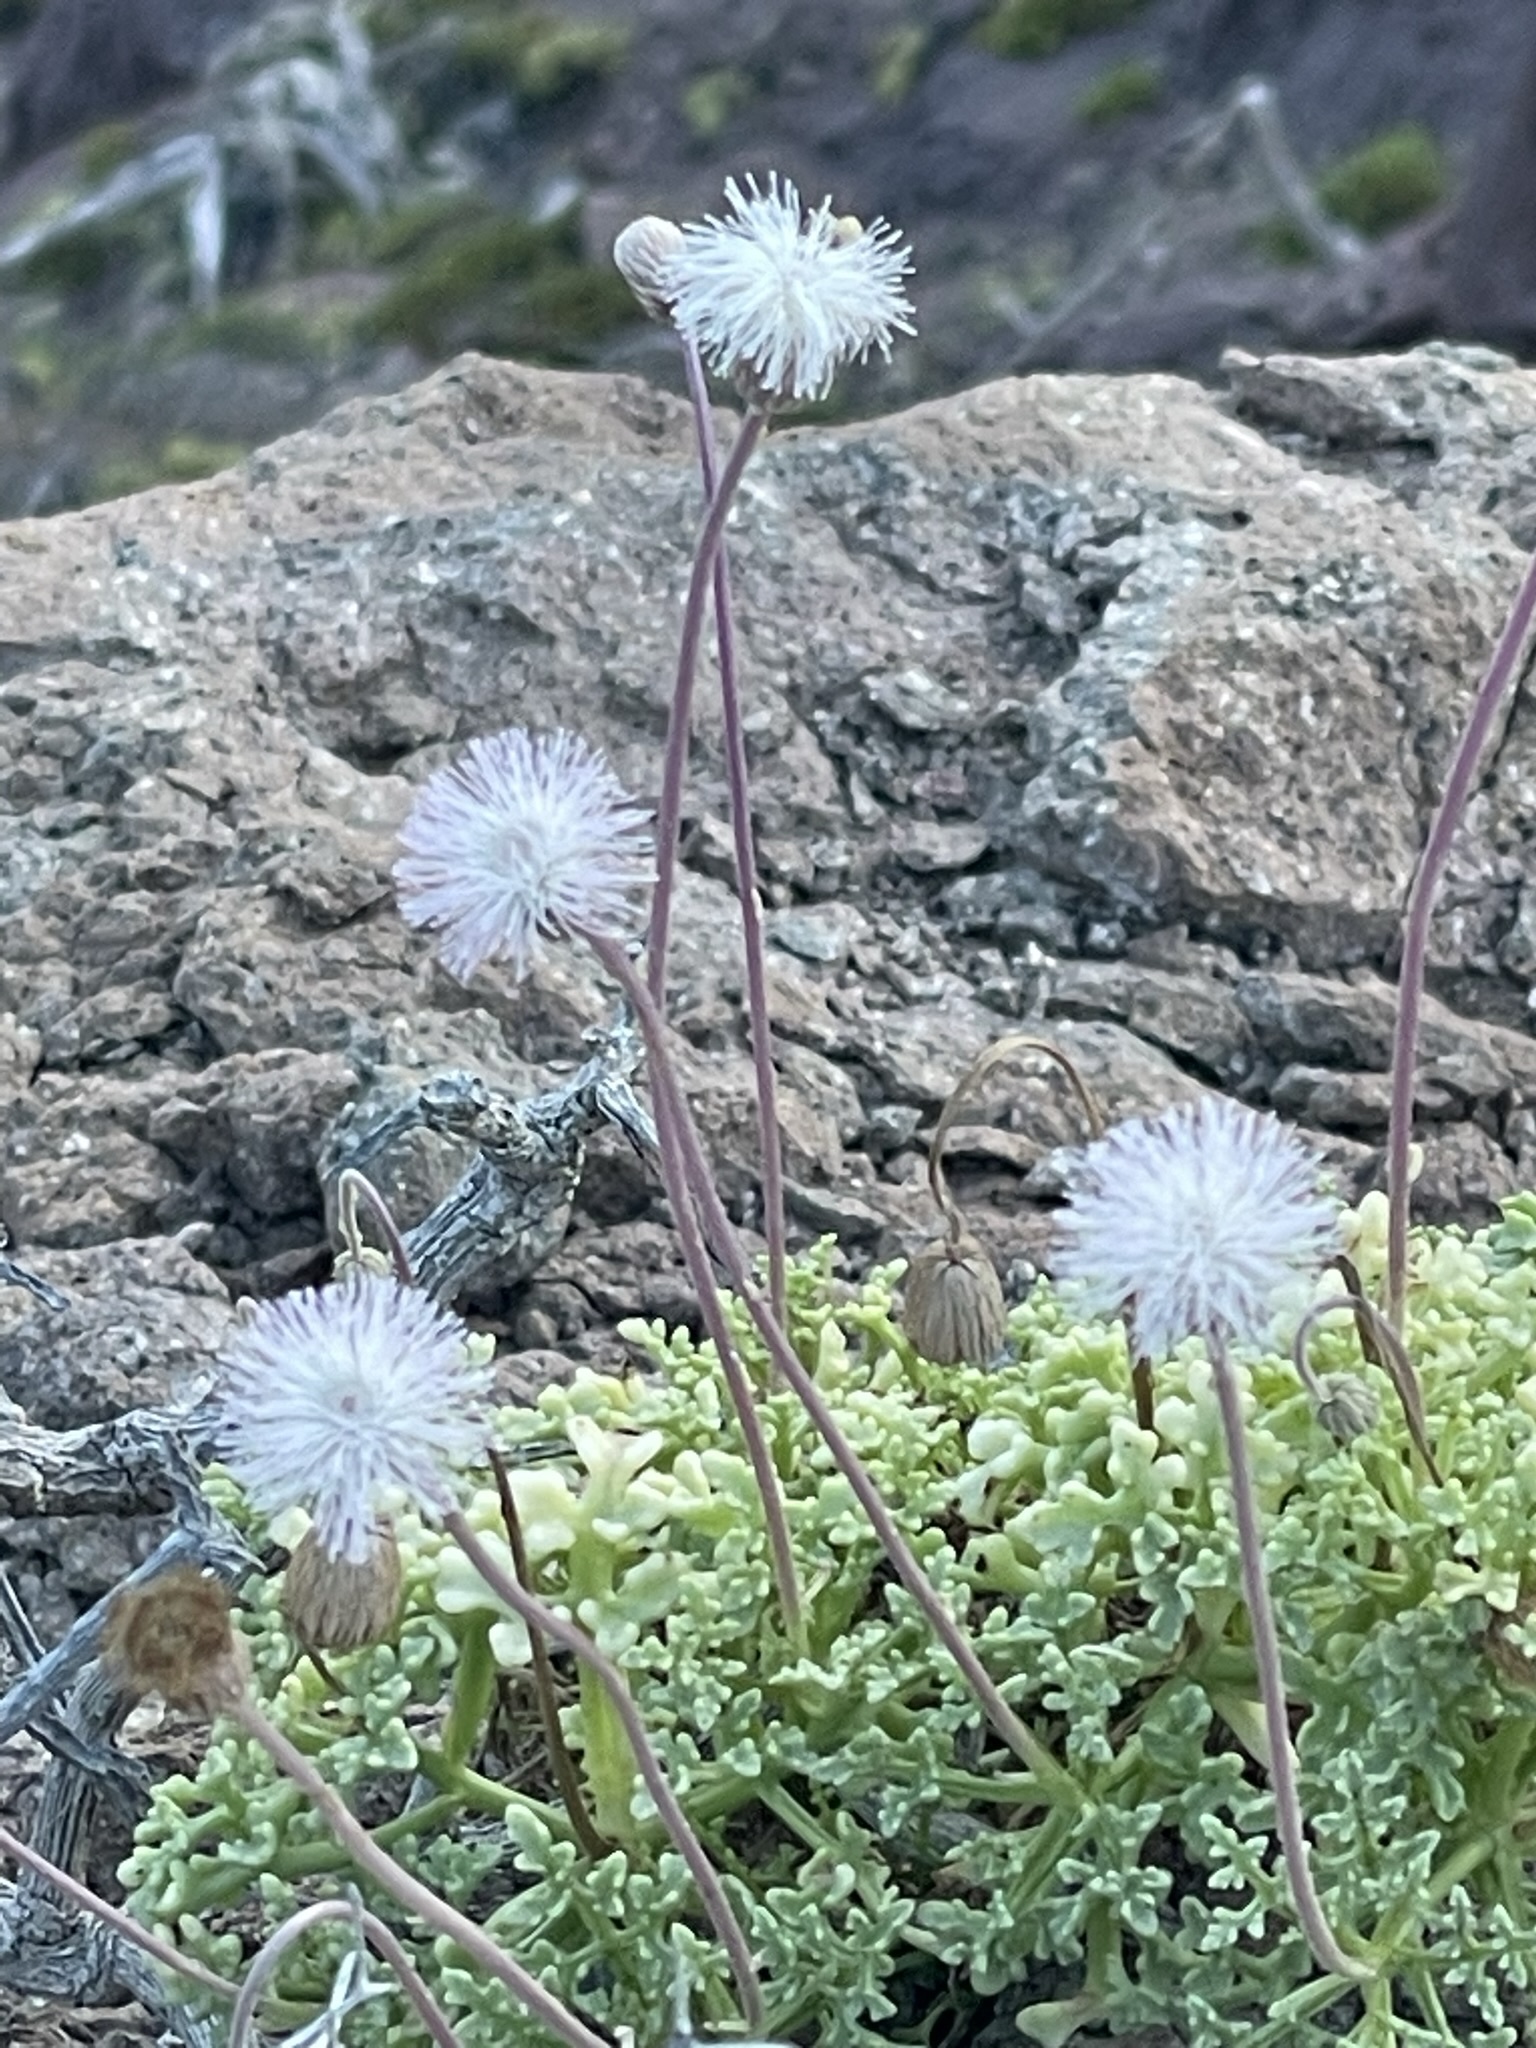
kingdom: Plantae
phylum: Tracheophyta
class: Magnoliopsida
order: Asterales
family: Asteraceae
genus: Hofmeisteria
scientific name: Hofmeisteria fasciculata
